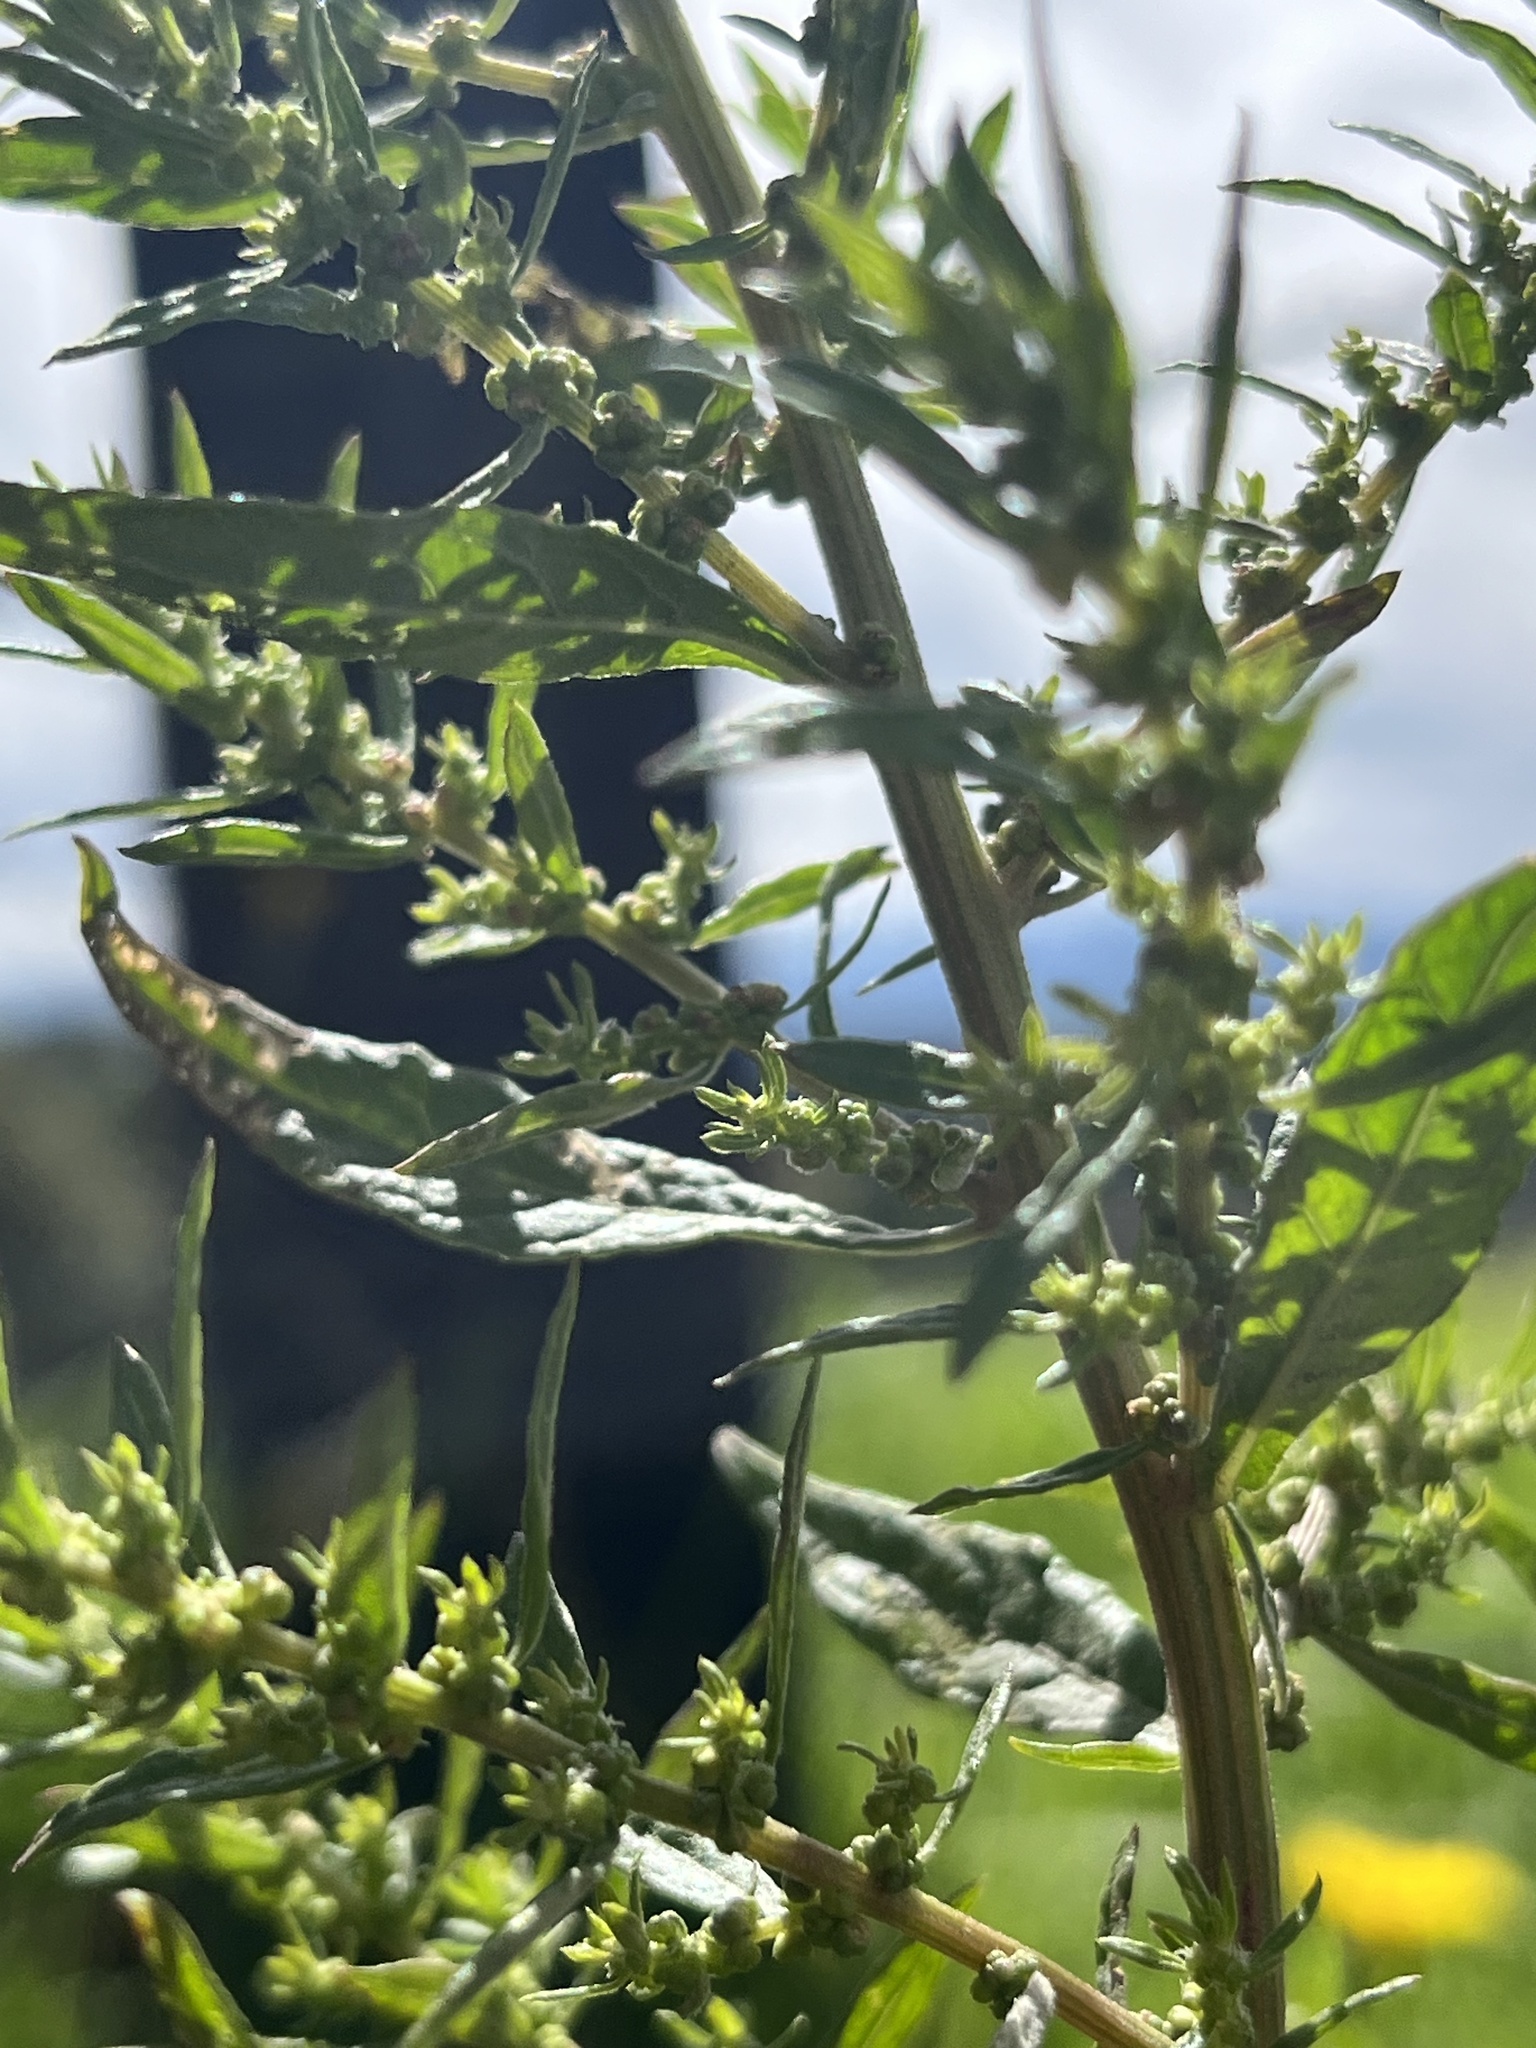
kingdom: Plantae
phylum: Tracheophyta
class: Magnoliopsida
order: Caryophyllales
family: Amaranthaceae
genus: Dysphania
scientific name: Dysphania ambrosioides
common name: Wormseed
